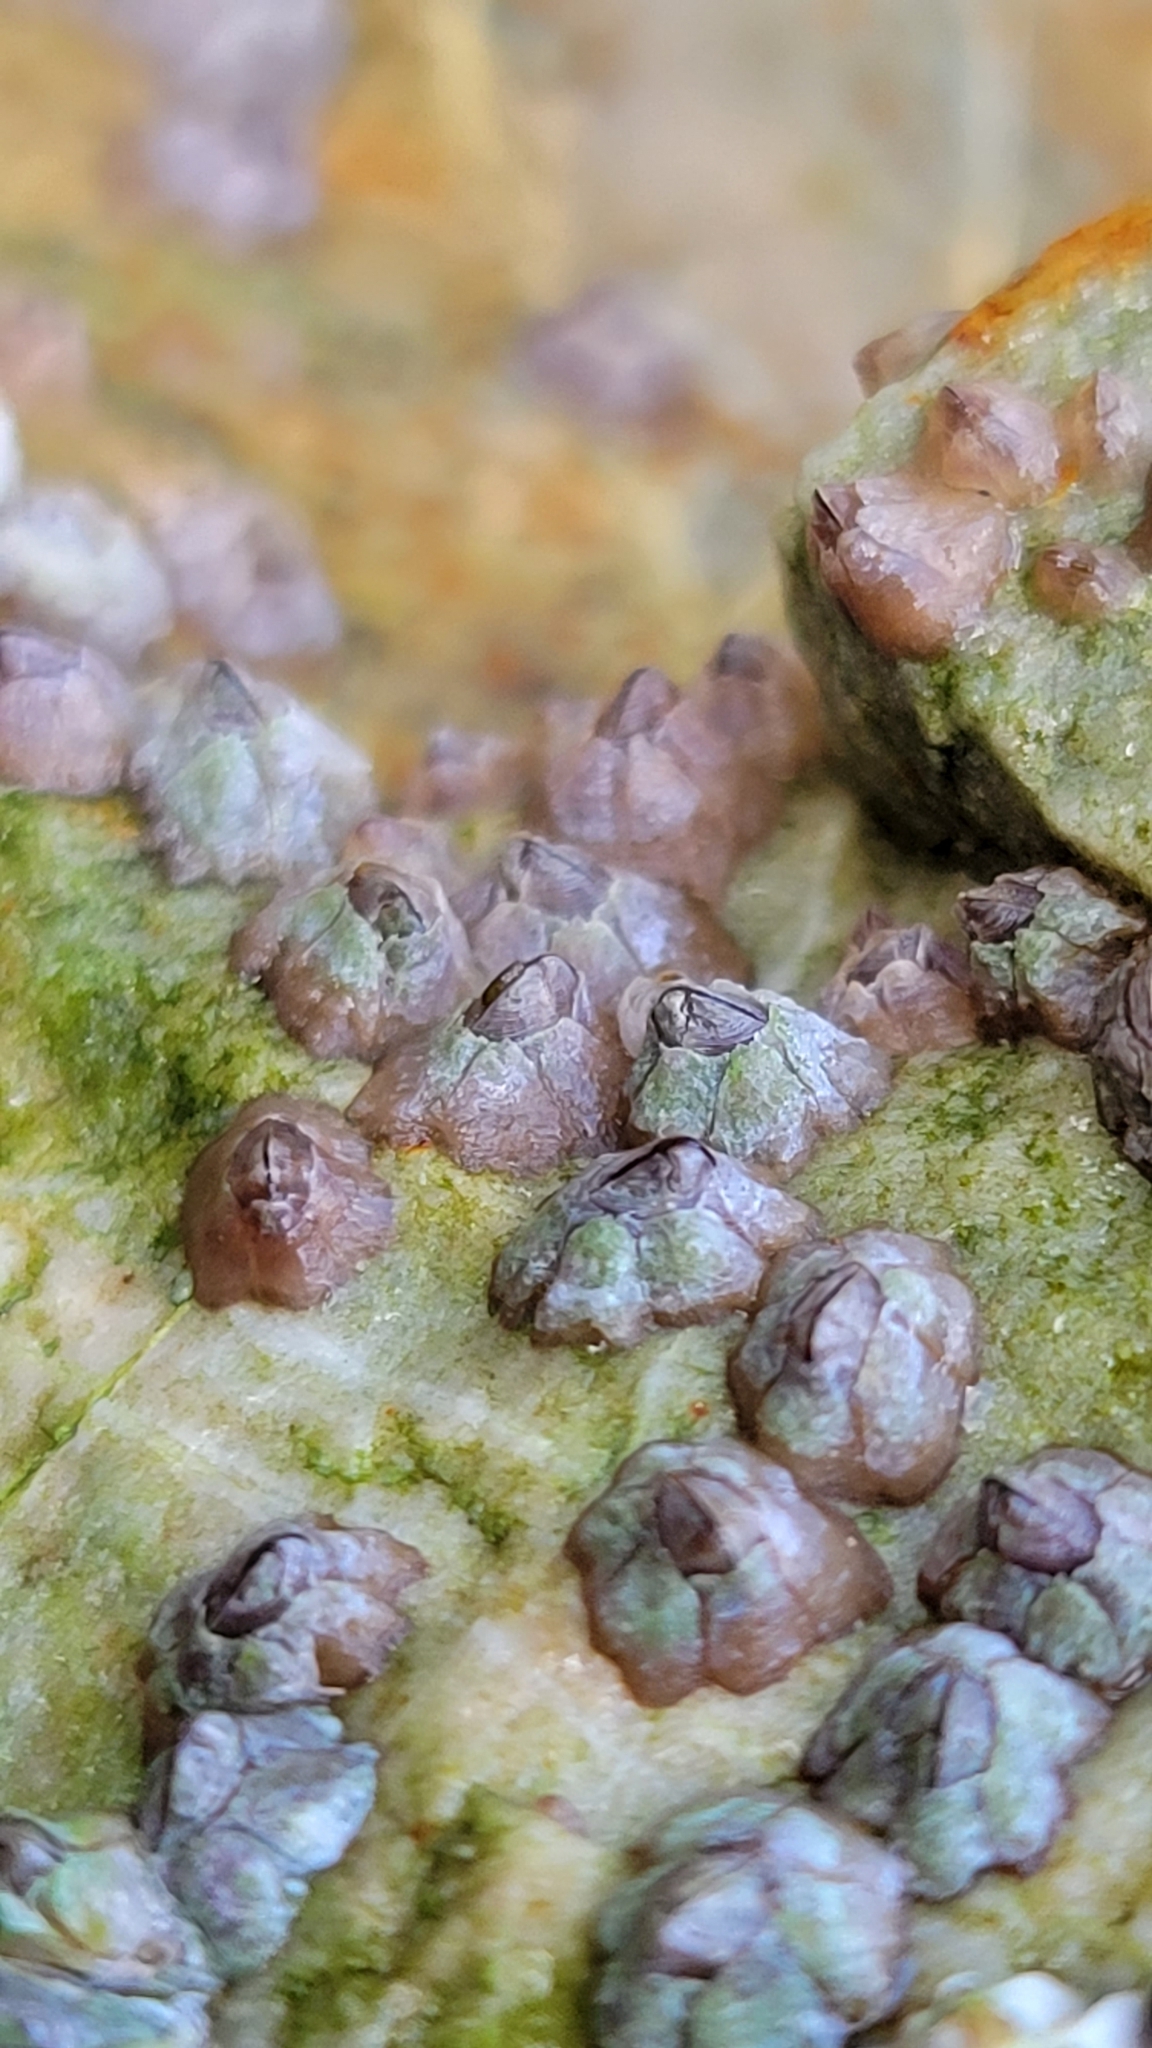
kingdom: Animalia
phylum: Arthropoda
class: Maxillopoda
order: Sessilia
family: Chthamalidae
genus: Chthamalus
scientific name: Chthamalus dalli
